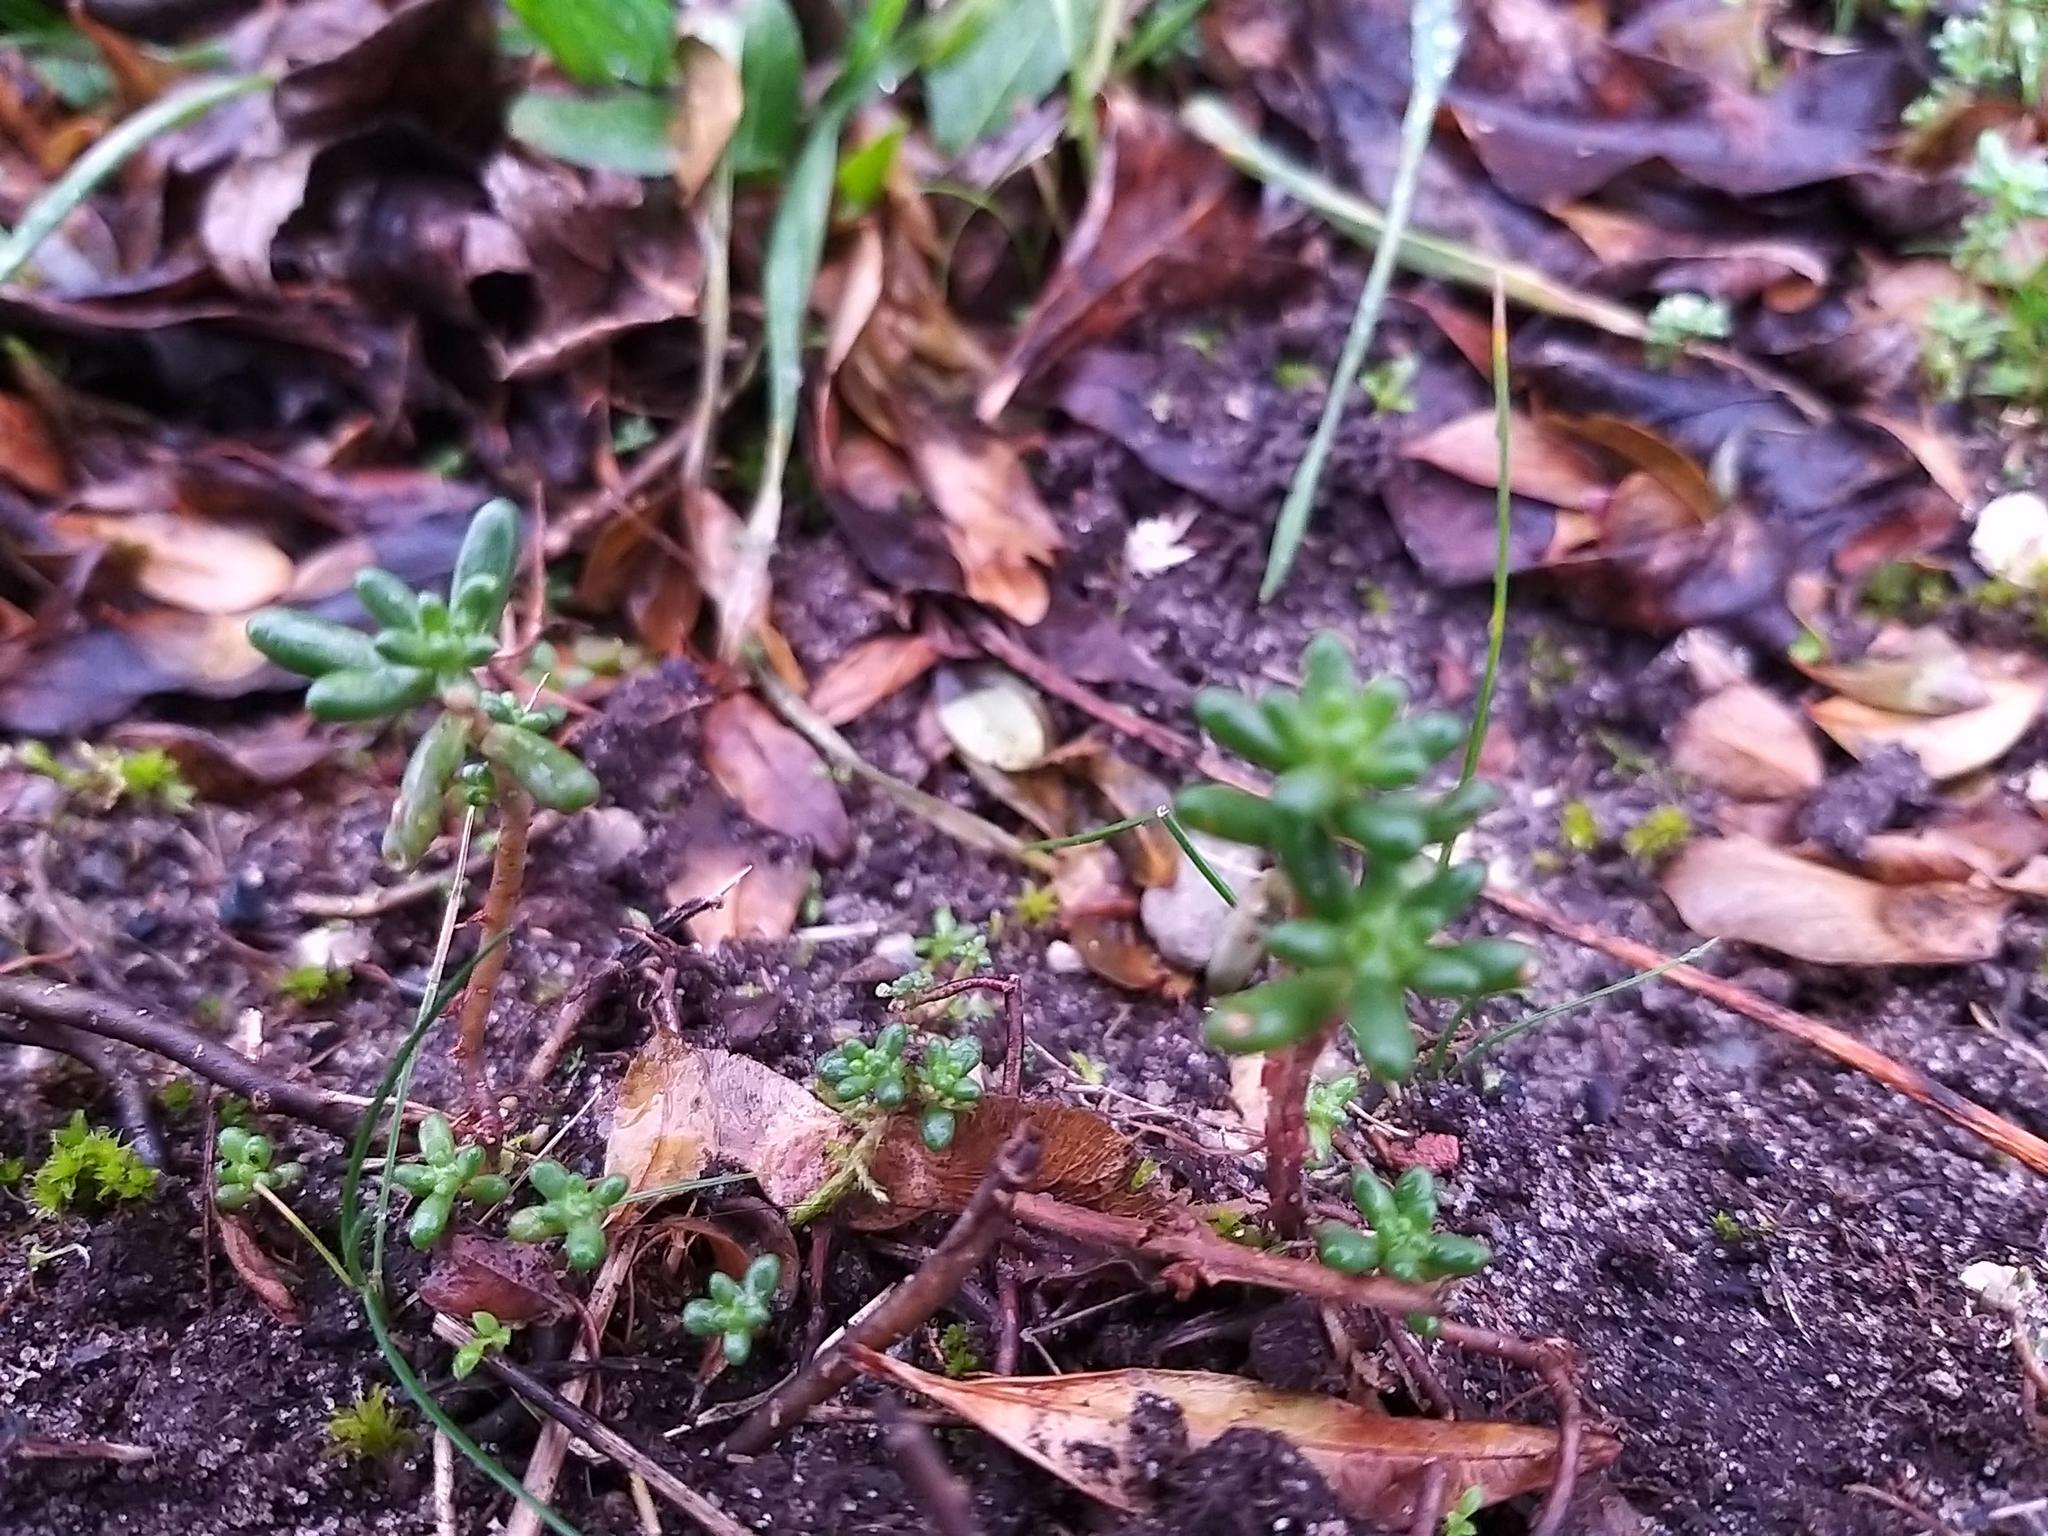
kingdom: Plantae
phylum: Tracheophyta
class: Magnoliopsida
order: Saxifragales
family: Crassulaceae
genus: Sedum
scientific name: Sedum album
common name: White stonecrop
